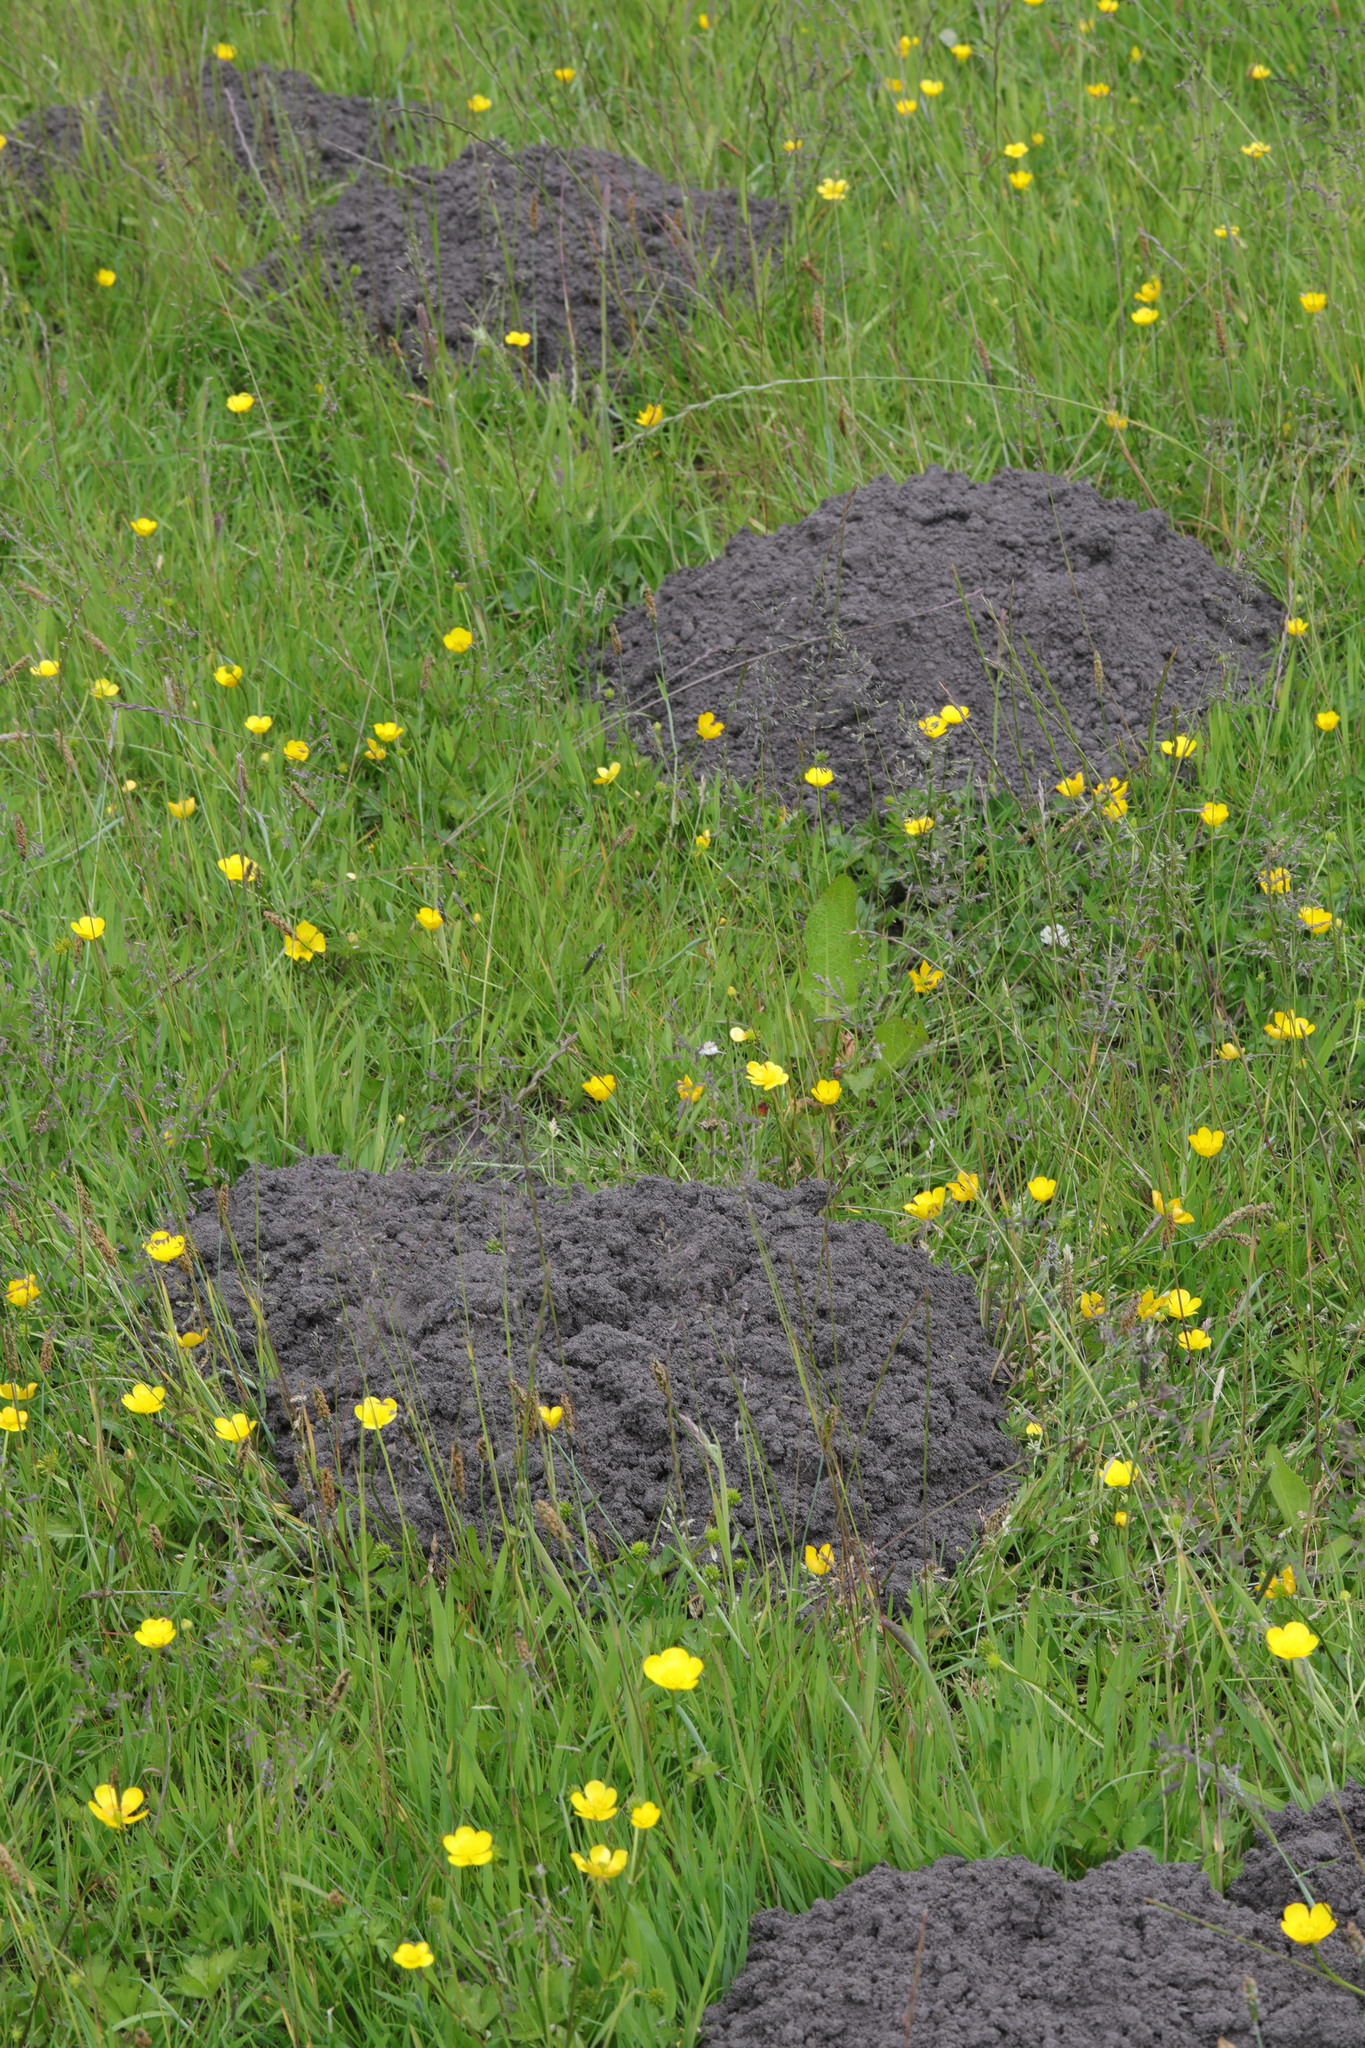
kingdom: Animalia
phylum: Chordata
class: Mammalia
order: Soricomorpha
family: Talpidae
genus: Talpa
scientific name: Talpa europaea
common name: European mole
